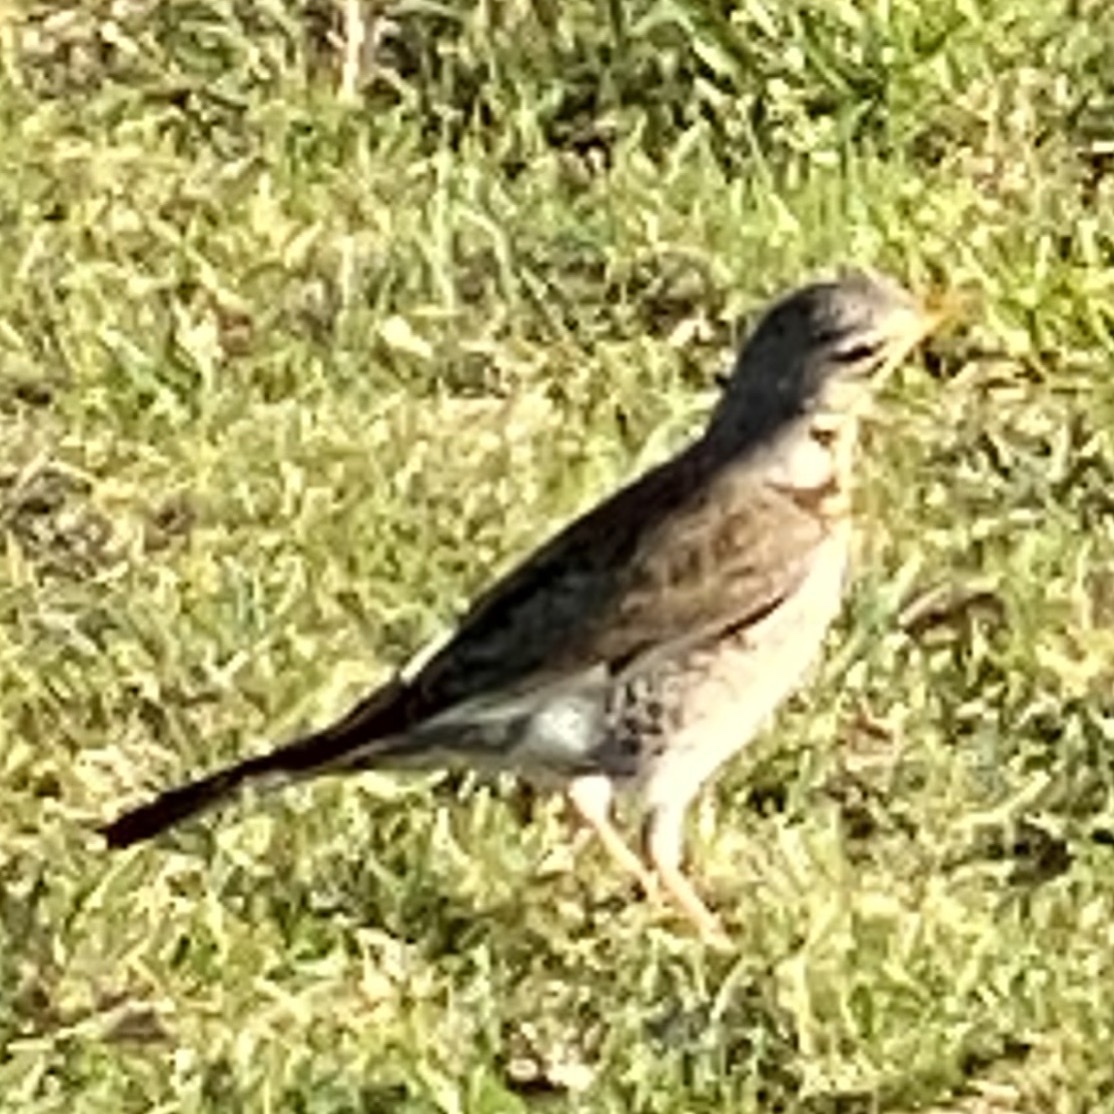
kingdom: Animalia
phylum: Chordata
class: Aves
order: Passeriformes
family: Turdidae
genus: Turdus
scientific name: Turdus pilaris
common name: Fieldfare
